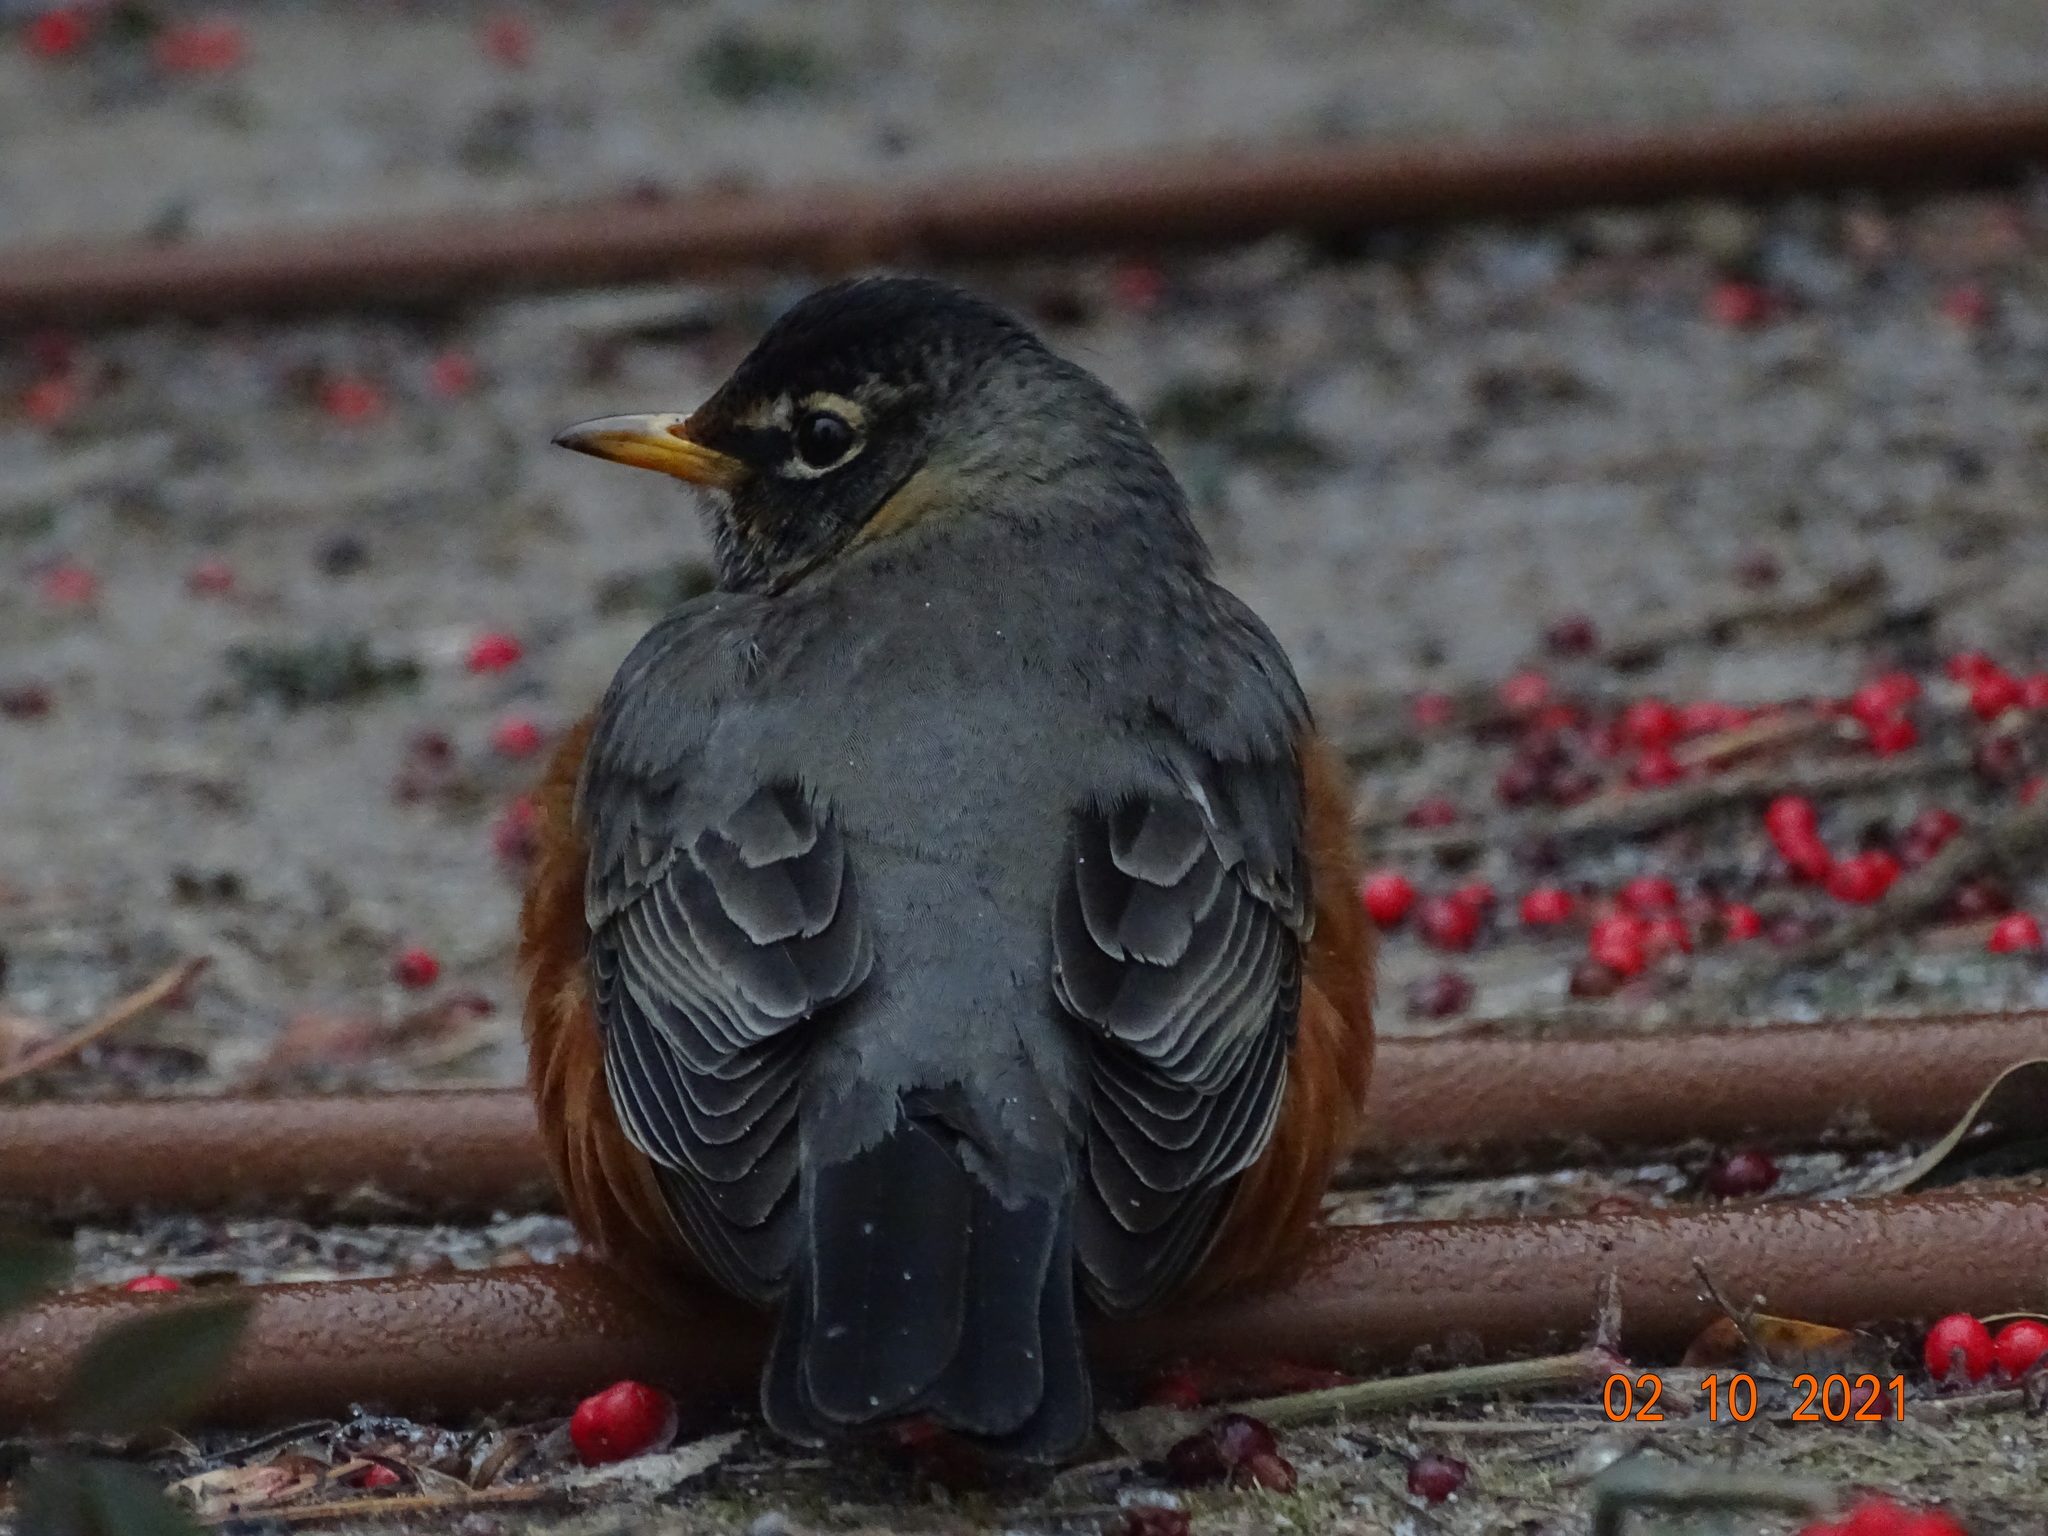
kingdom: Animalia
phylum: Chordata
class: Aves
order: Passeriformes
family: Turdidae
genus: Turdus
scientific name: Turdus migratorius
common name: American robin
